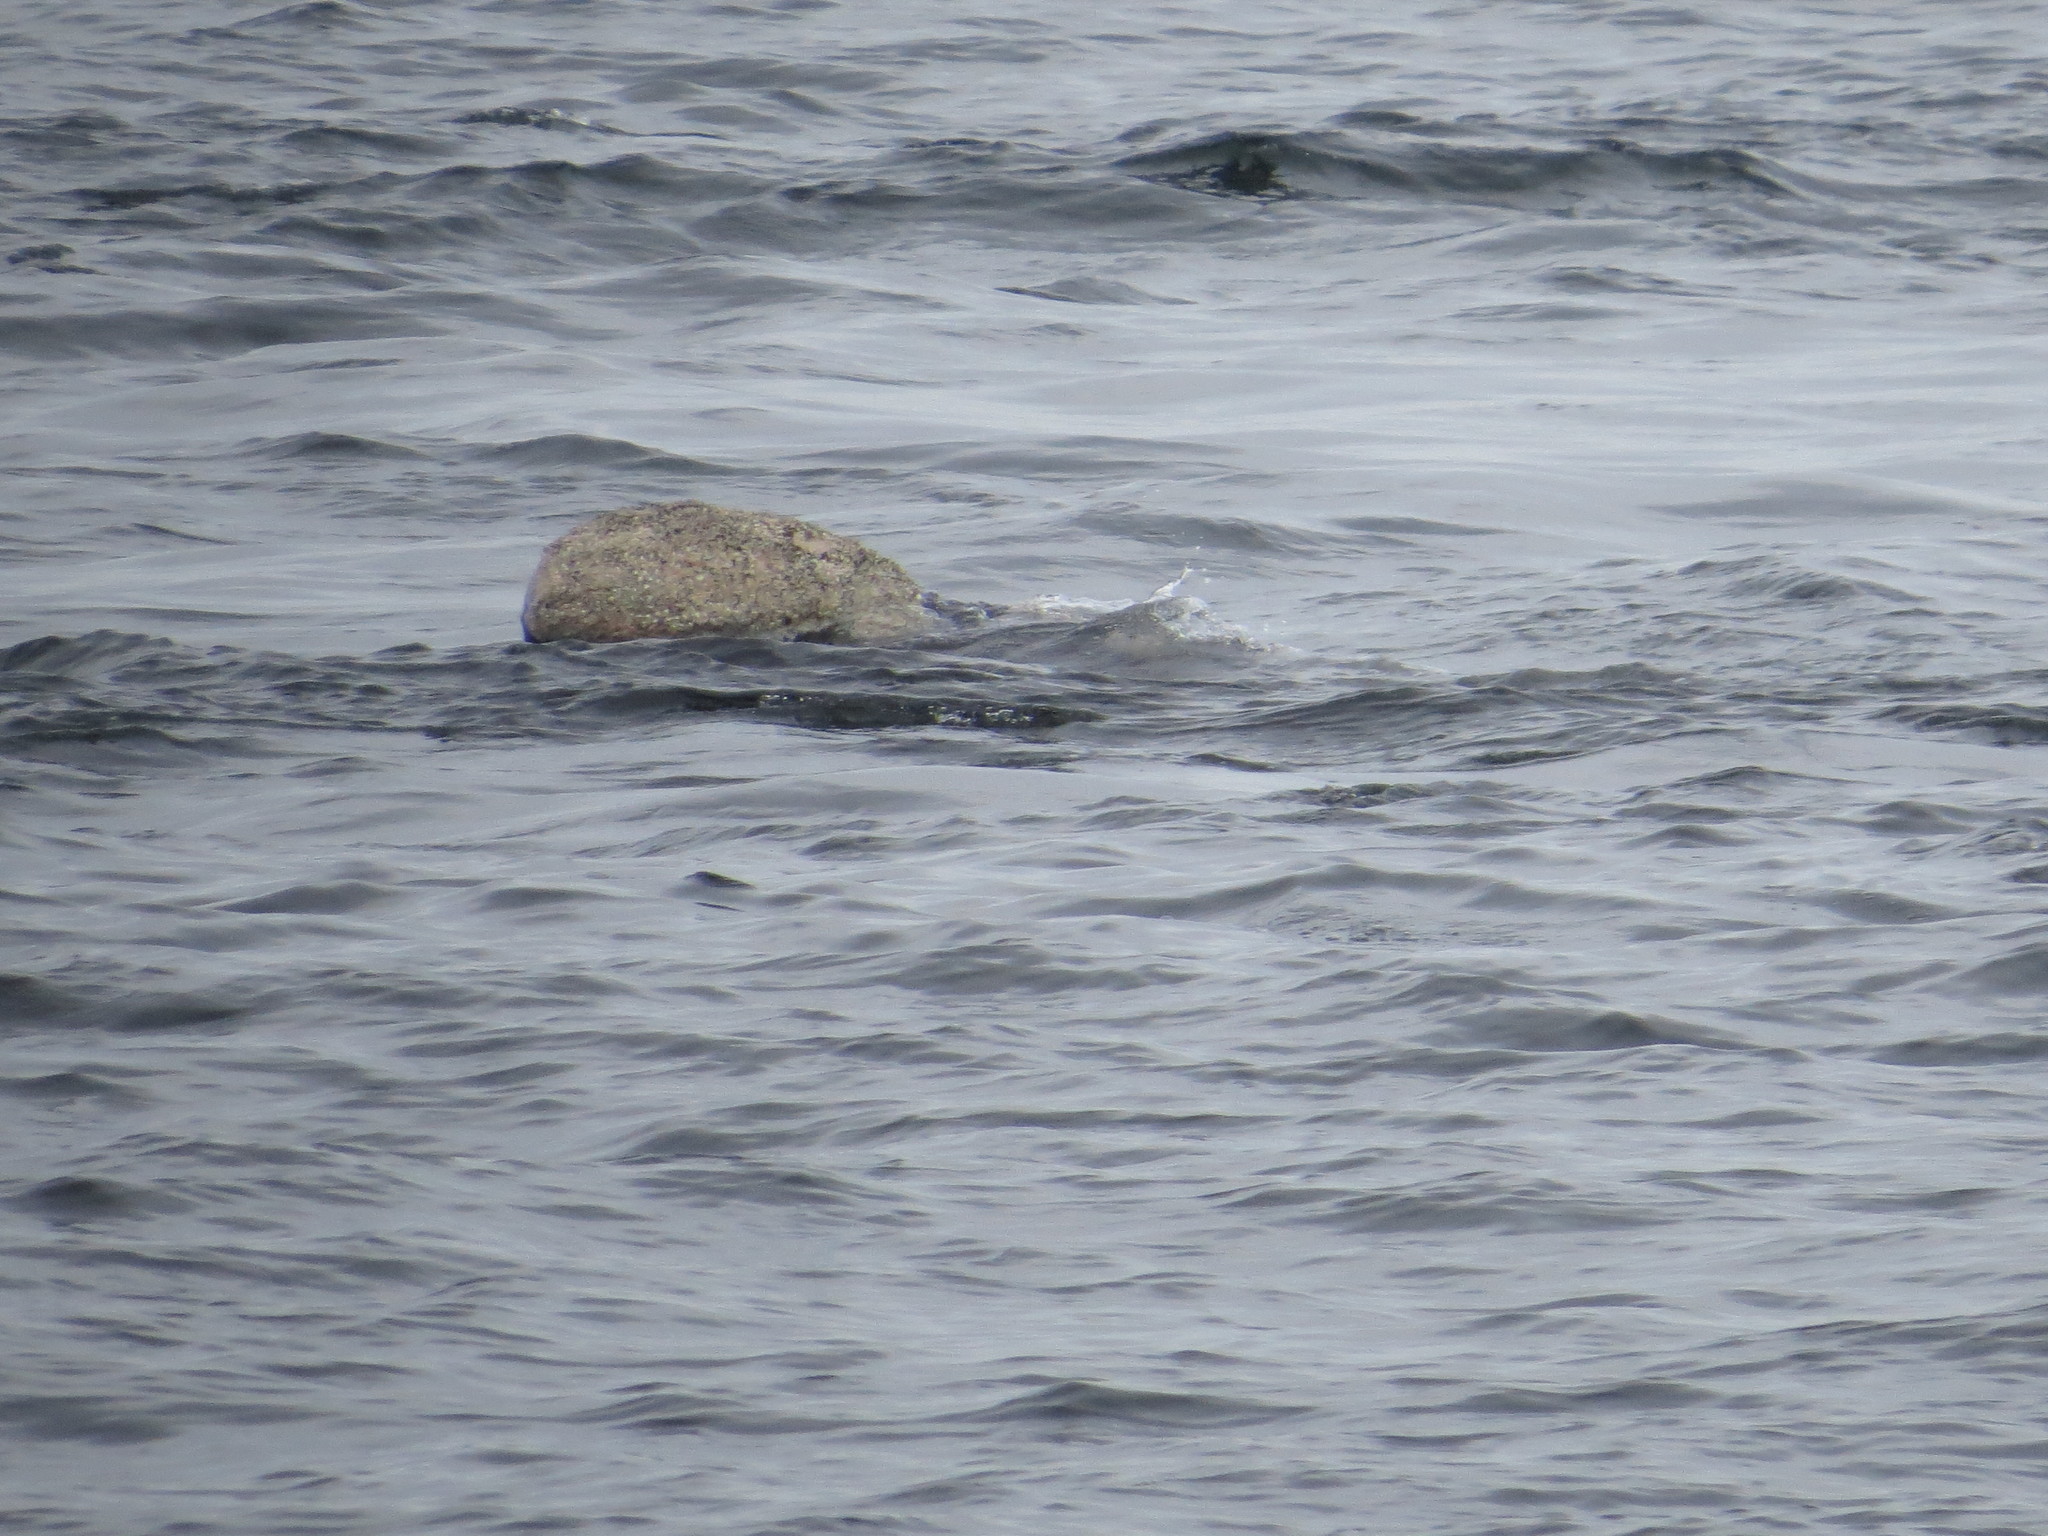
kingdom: Animalia
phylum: Chordata
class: Mammalia
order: Cetacea
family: Balaenidae
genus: Eubalaena
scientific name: Eubalaena australis
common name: Southern right whale
